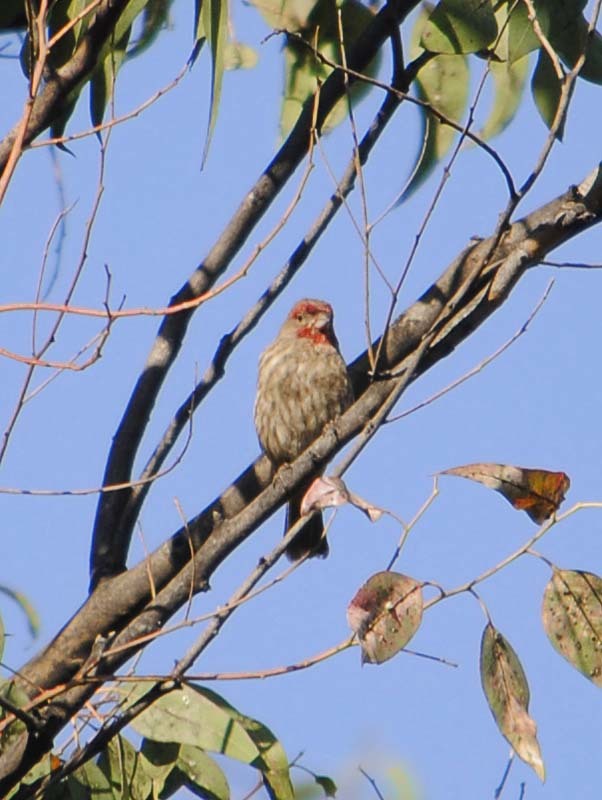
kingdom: Animalia
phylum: Chordata
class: Aves
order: Passeriformes
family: Fringillidae
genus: Haemorhous
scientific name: Haemorhous mexicanus
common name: House finch
